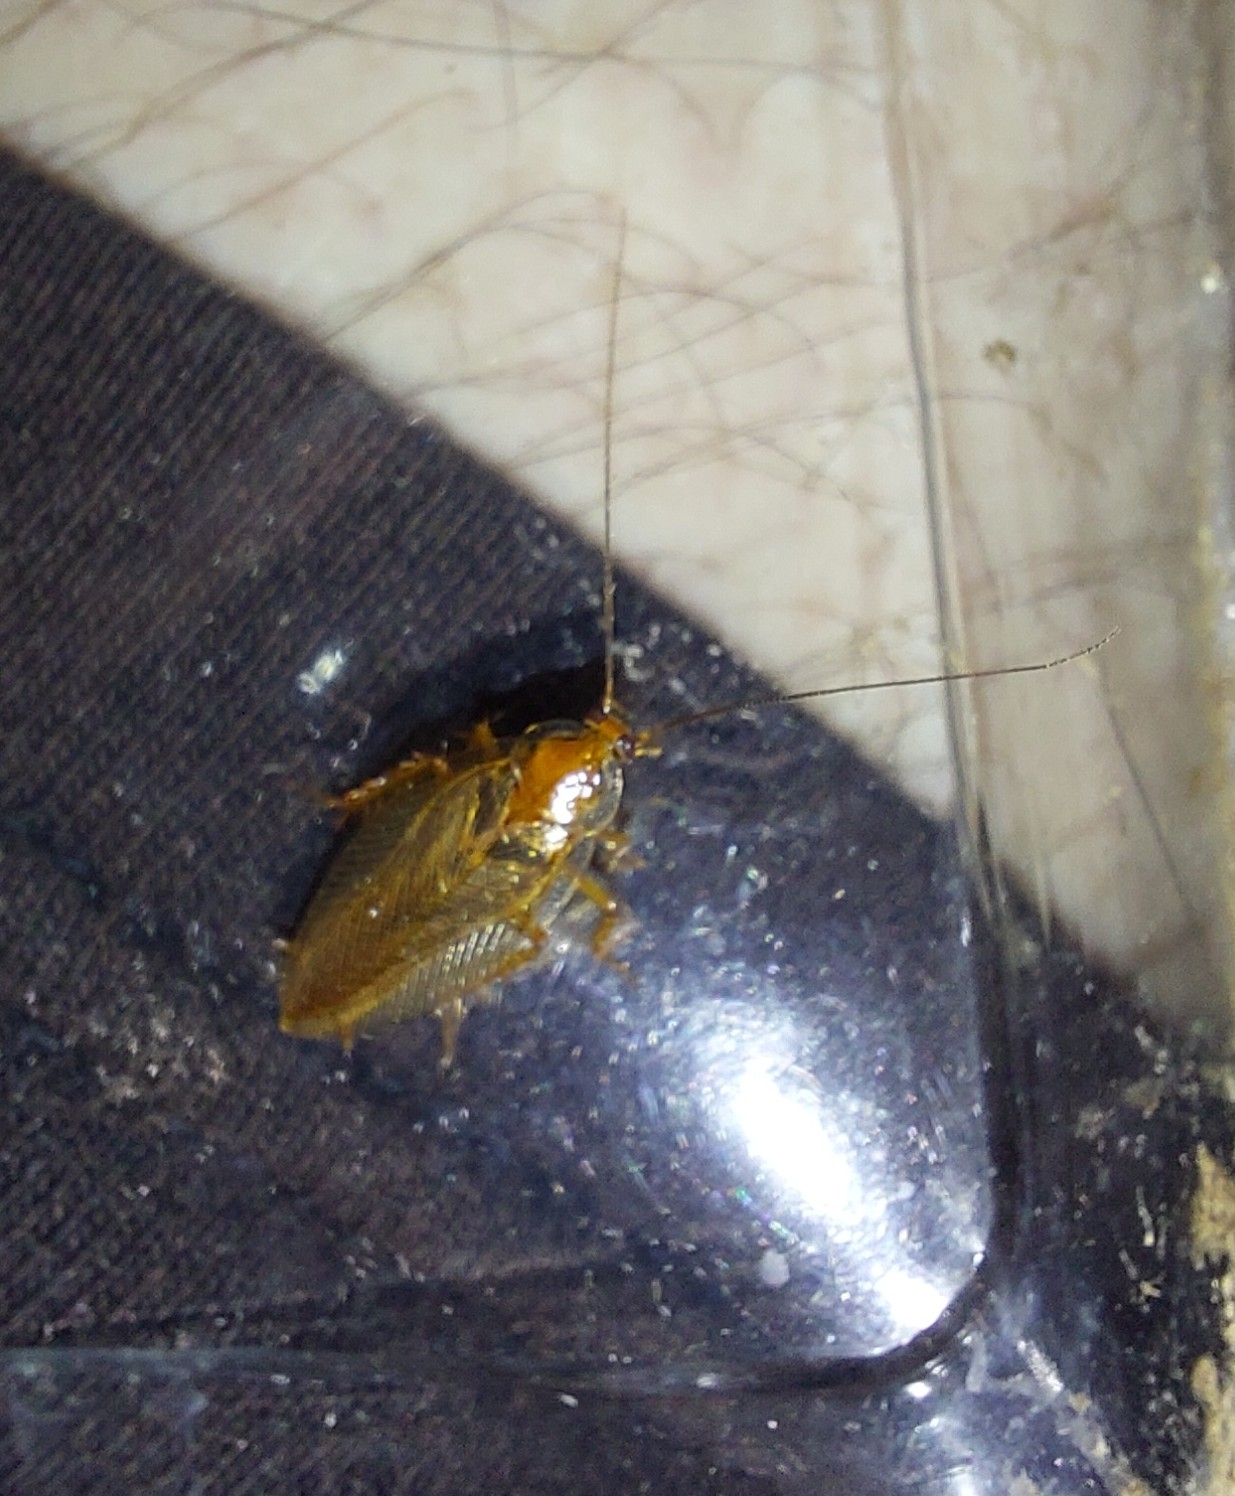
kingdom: Animalia
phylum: Arthropoda
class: Insecta
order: Blattodea
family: Ectobiidae
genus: Ectobius
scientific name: Ectobius vittiventris
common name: Garden cockroach
